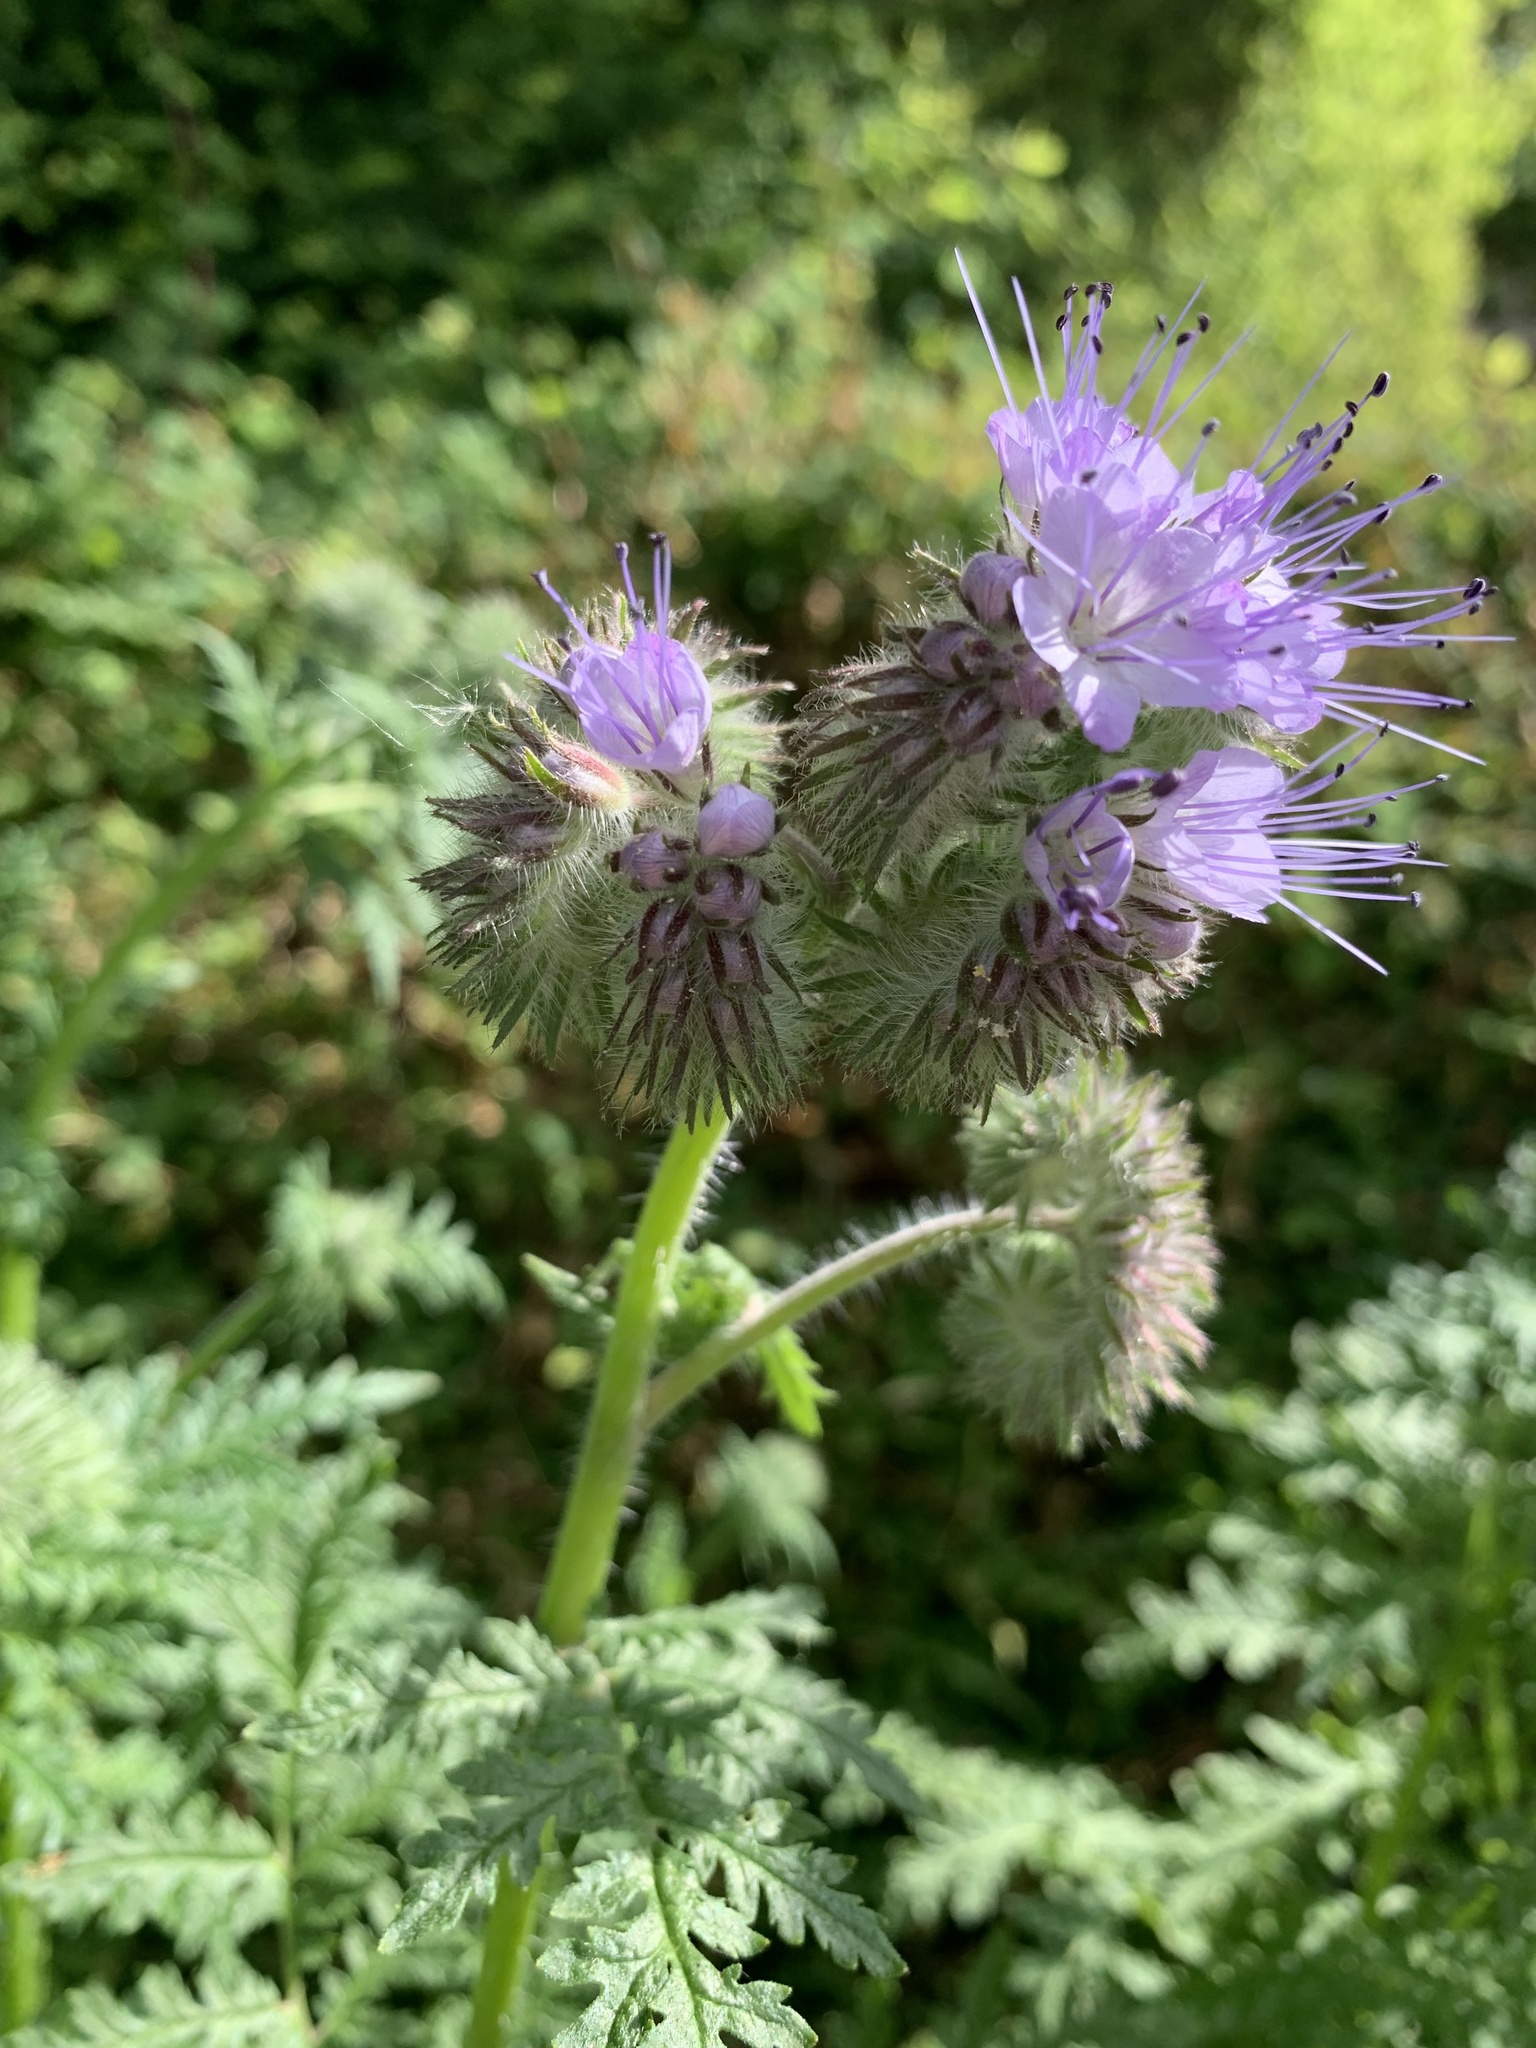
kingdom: Plantae
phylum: Tracheophyta
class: Magnoliopsida
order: Boraginales
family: Hydrophyllaceae
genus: Phacelia
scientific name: Phacelia tanacetifolia
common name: Phacelia
